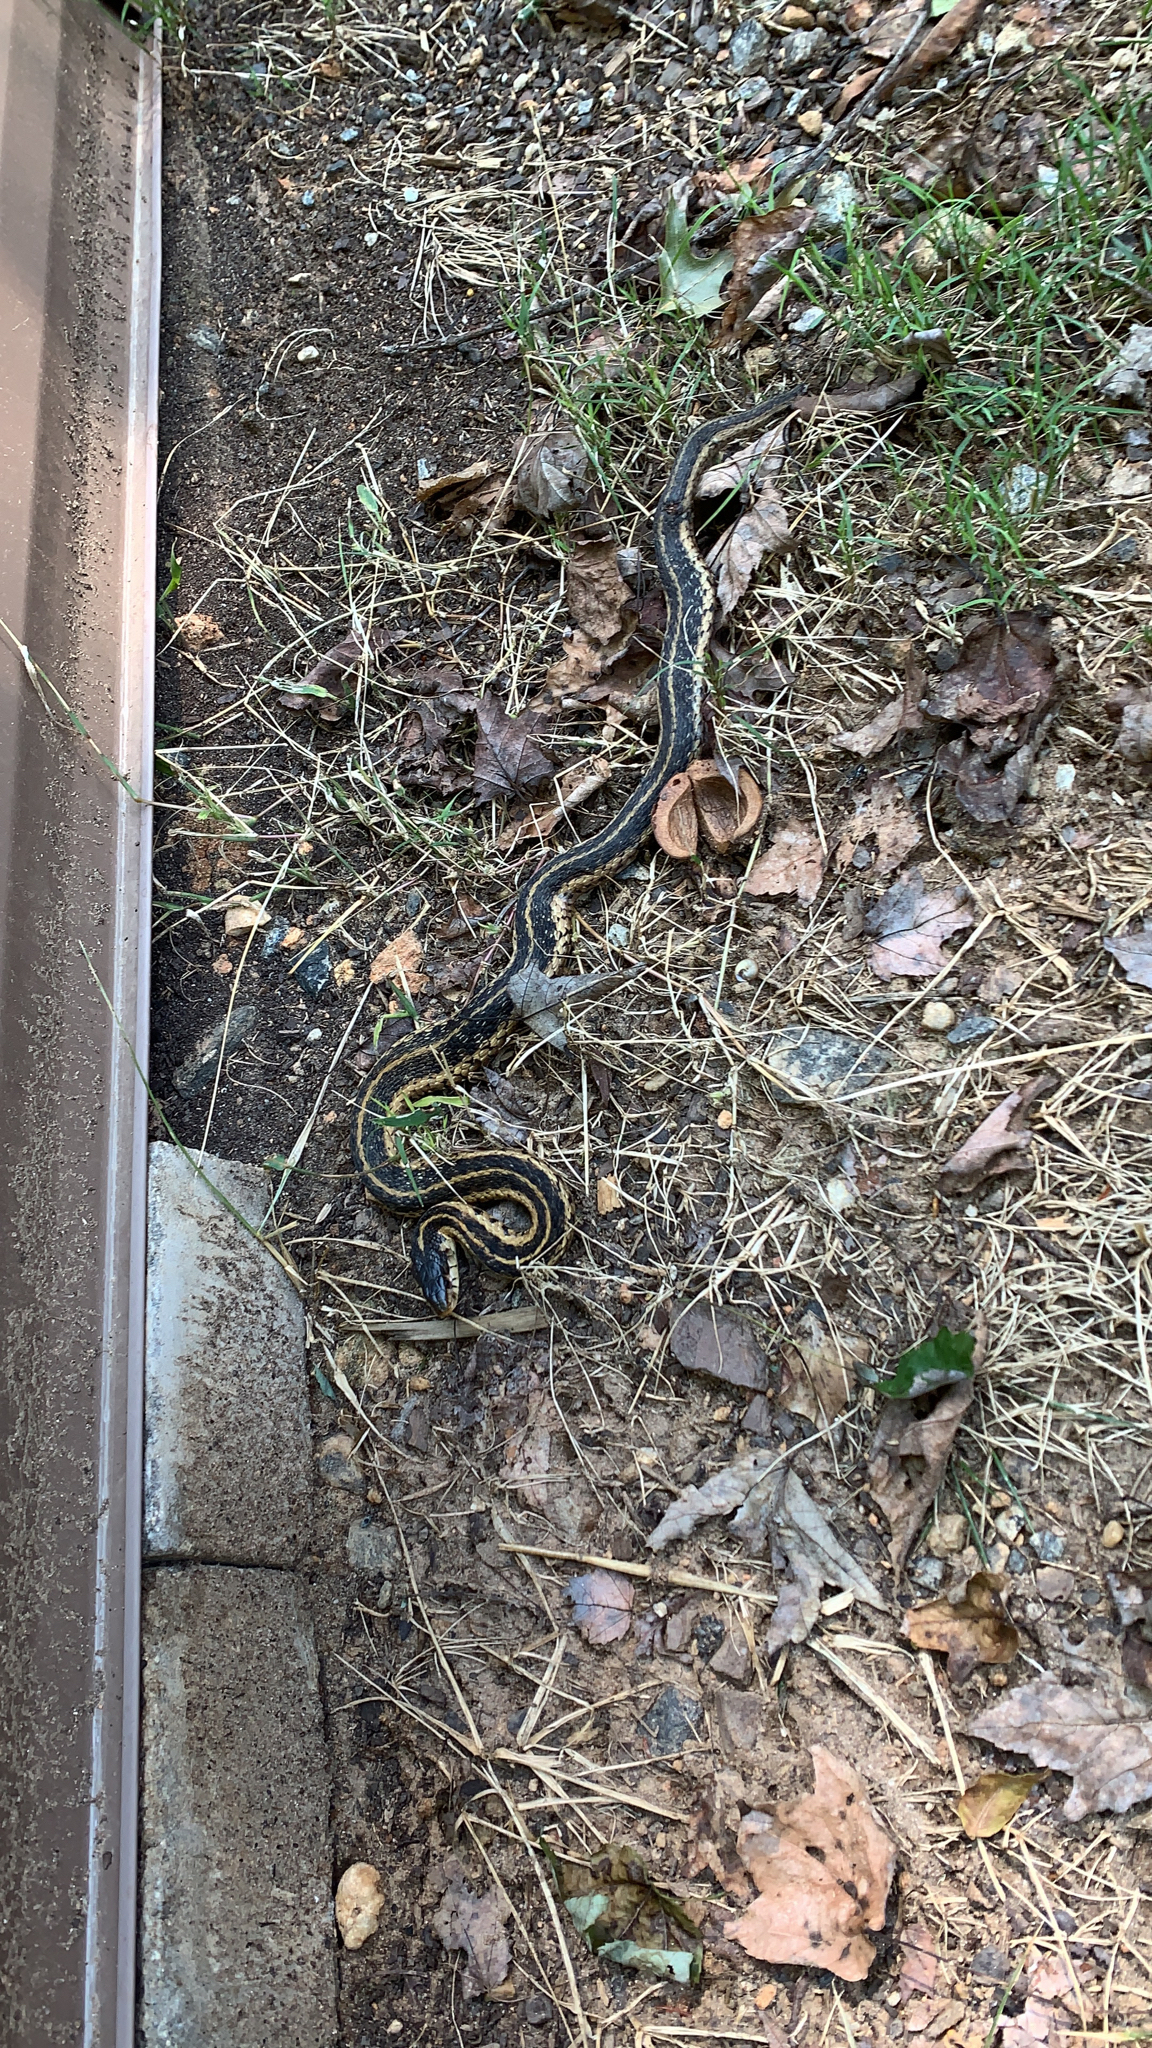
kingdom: Animalia
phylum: Chordata
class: Squamata
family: Colubridae
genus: Thamnophis
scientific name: Thamnophis sirtalis
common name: Common garter snake
